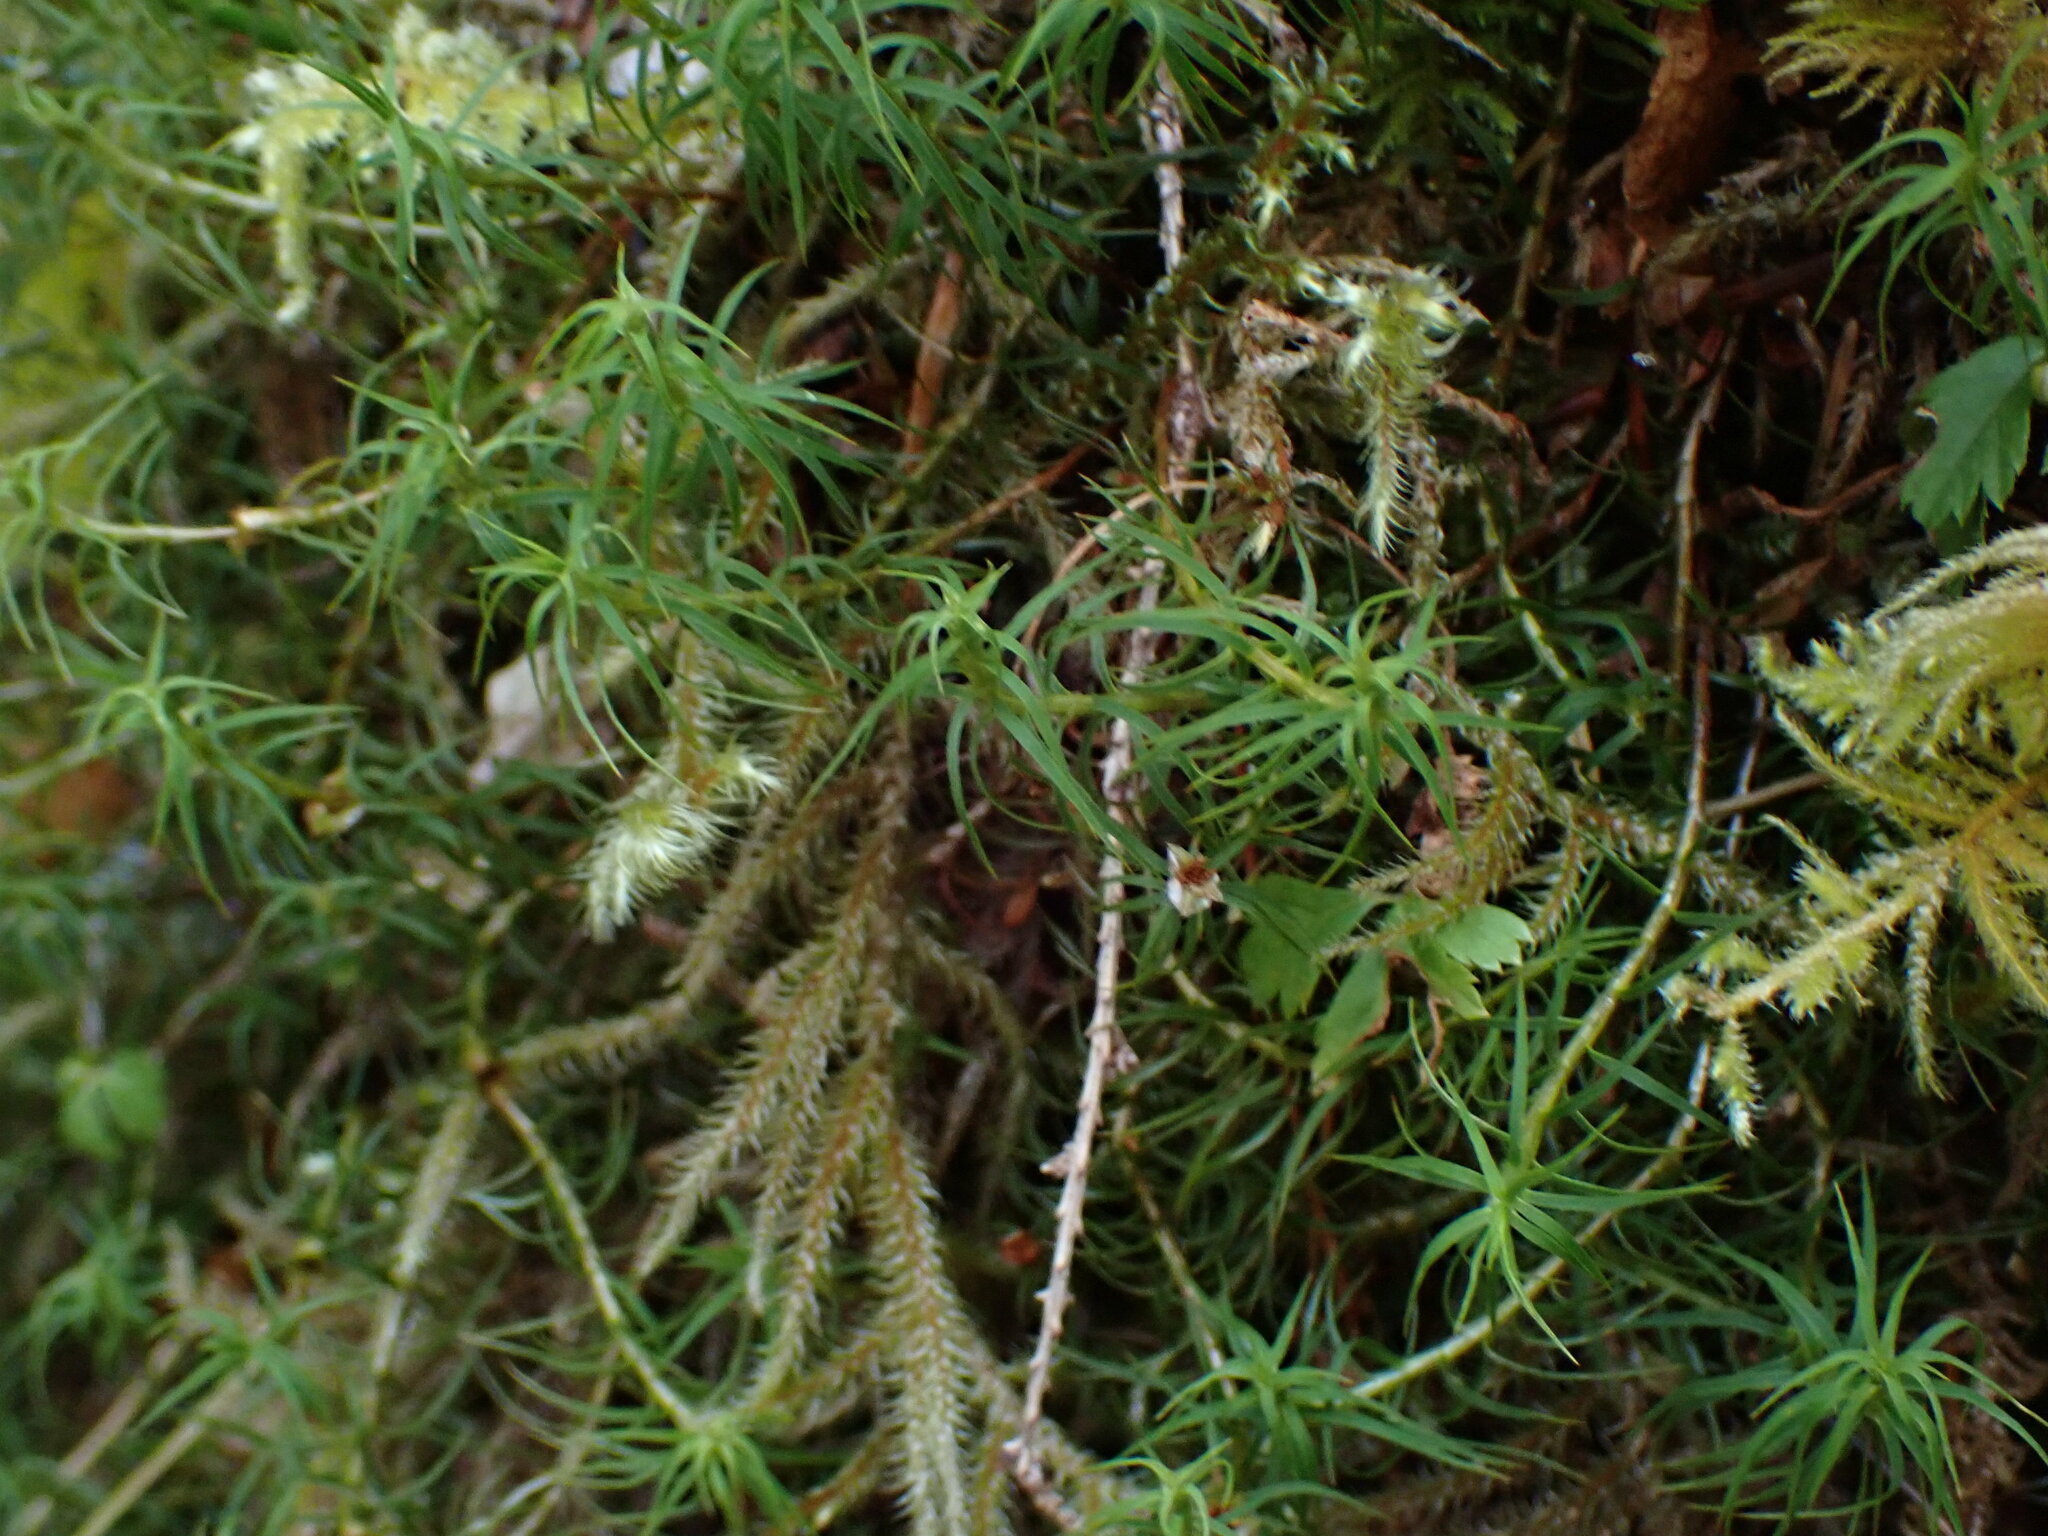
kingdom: Plantae
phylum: Bryophyta
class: Polytrichopsida
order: Polytrichales
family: Polytrichaceae
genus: Polytrichastrum
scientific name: Polytrichastrum alpinum
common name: Alpine haircap
